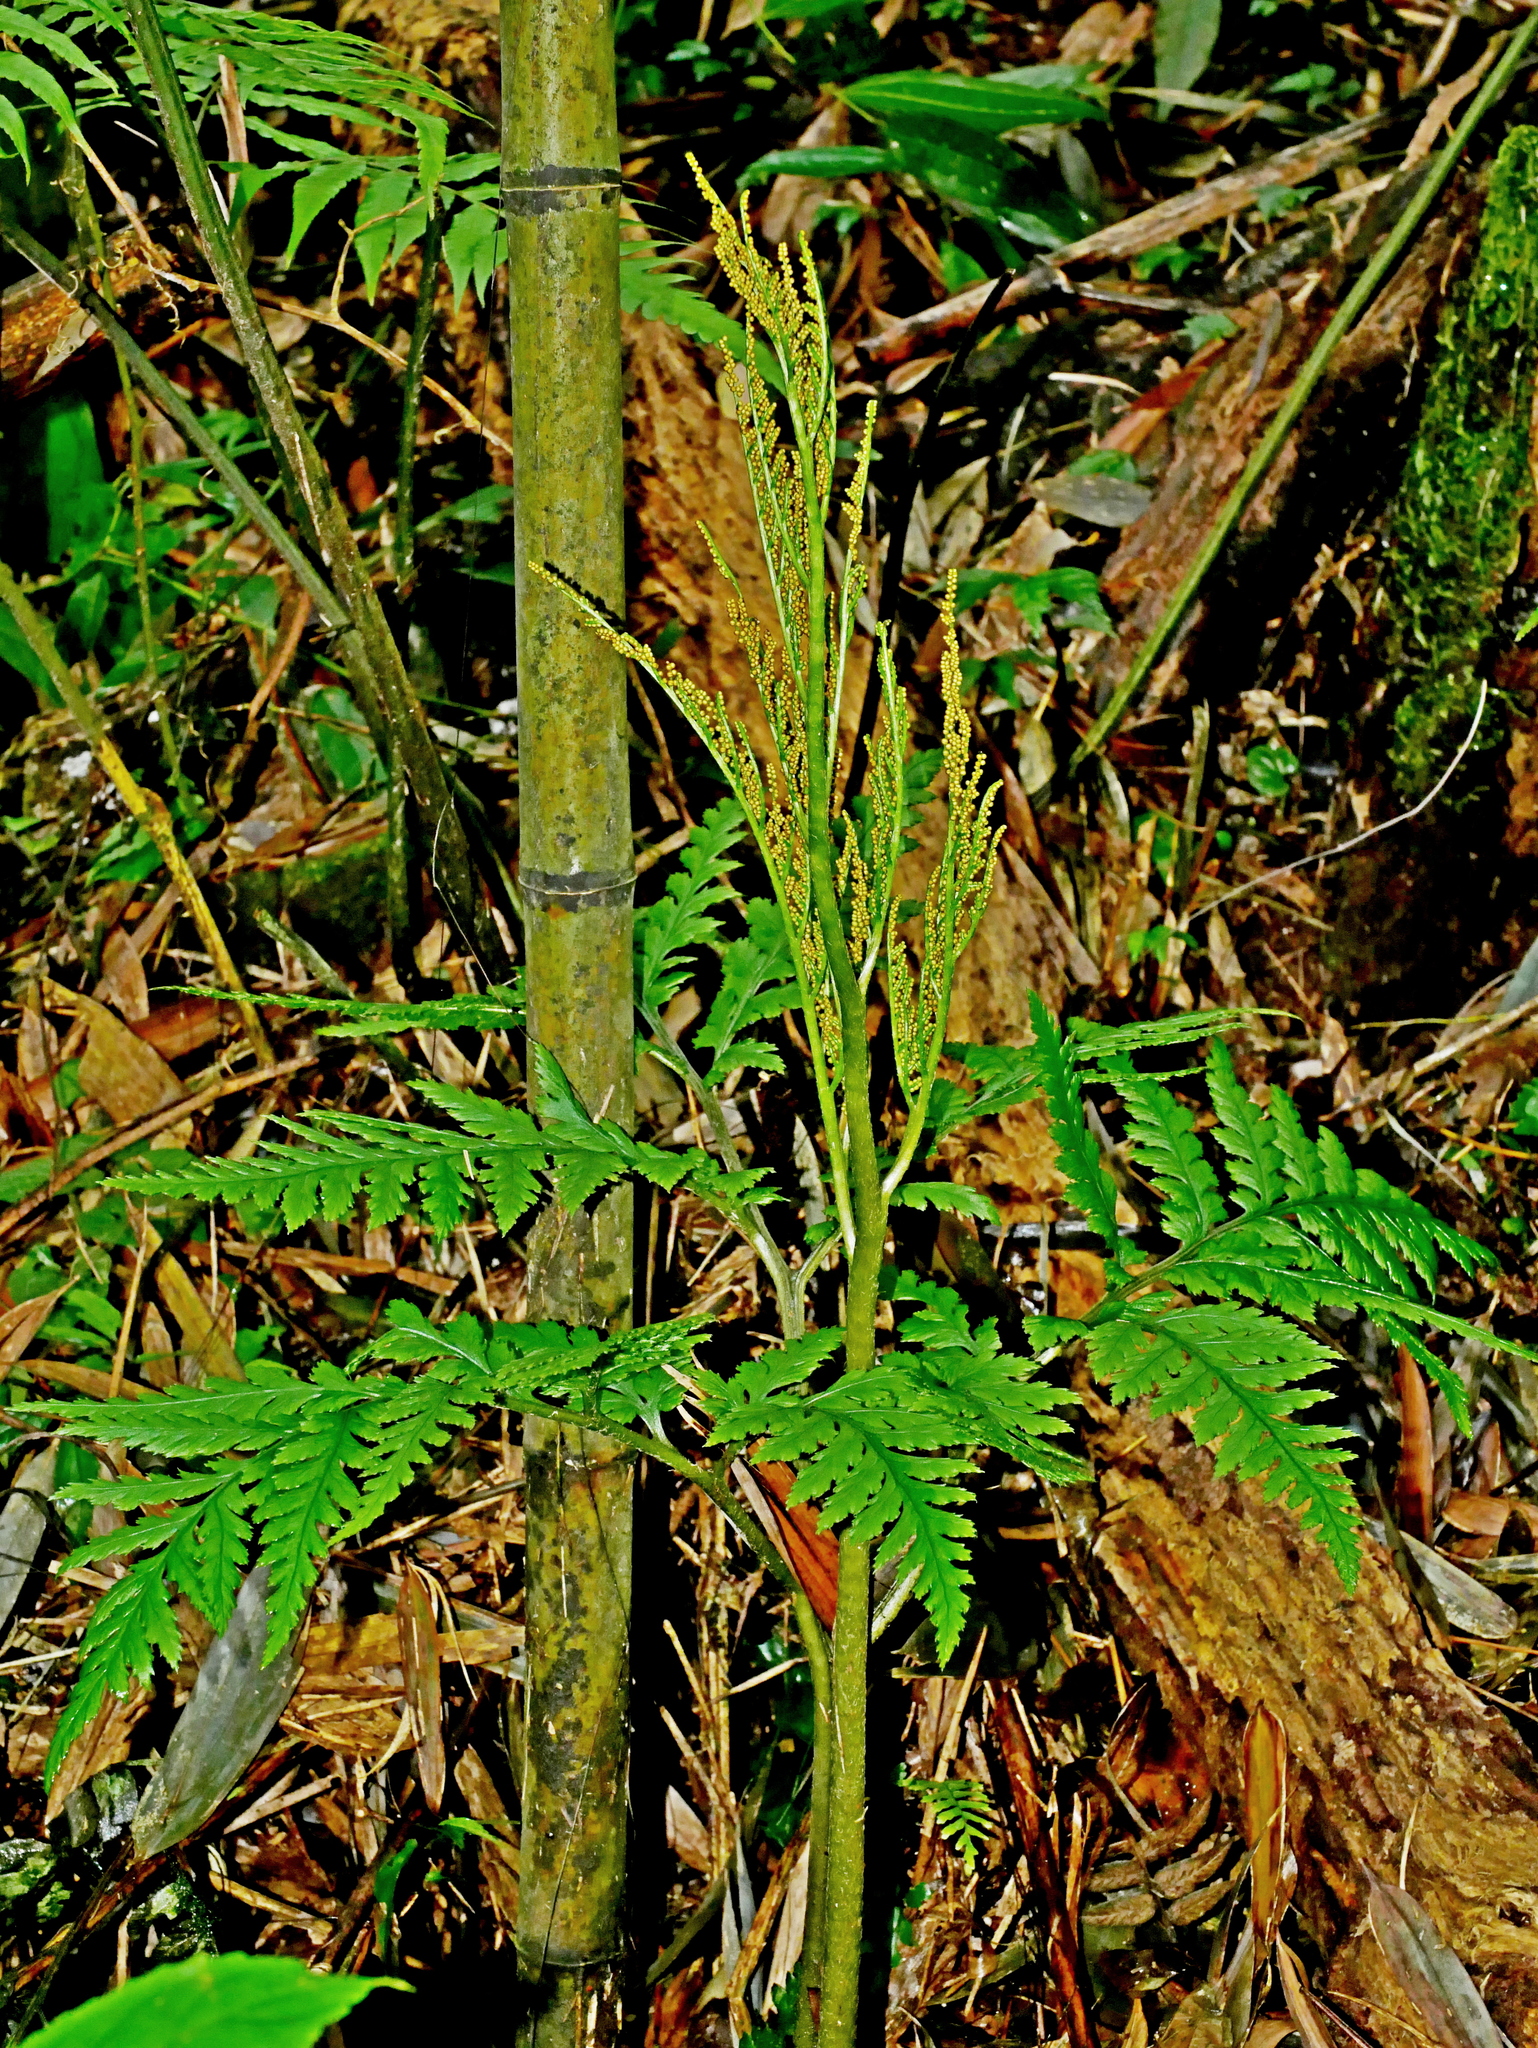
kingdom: Plantae
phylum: Tracheophyta
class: Polypodiopsida
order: Ophioglossales
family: Ophioglossaceae
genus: Sceptridium
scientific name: Sceptridium formosanum
